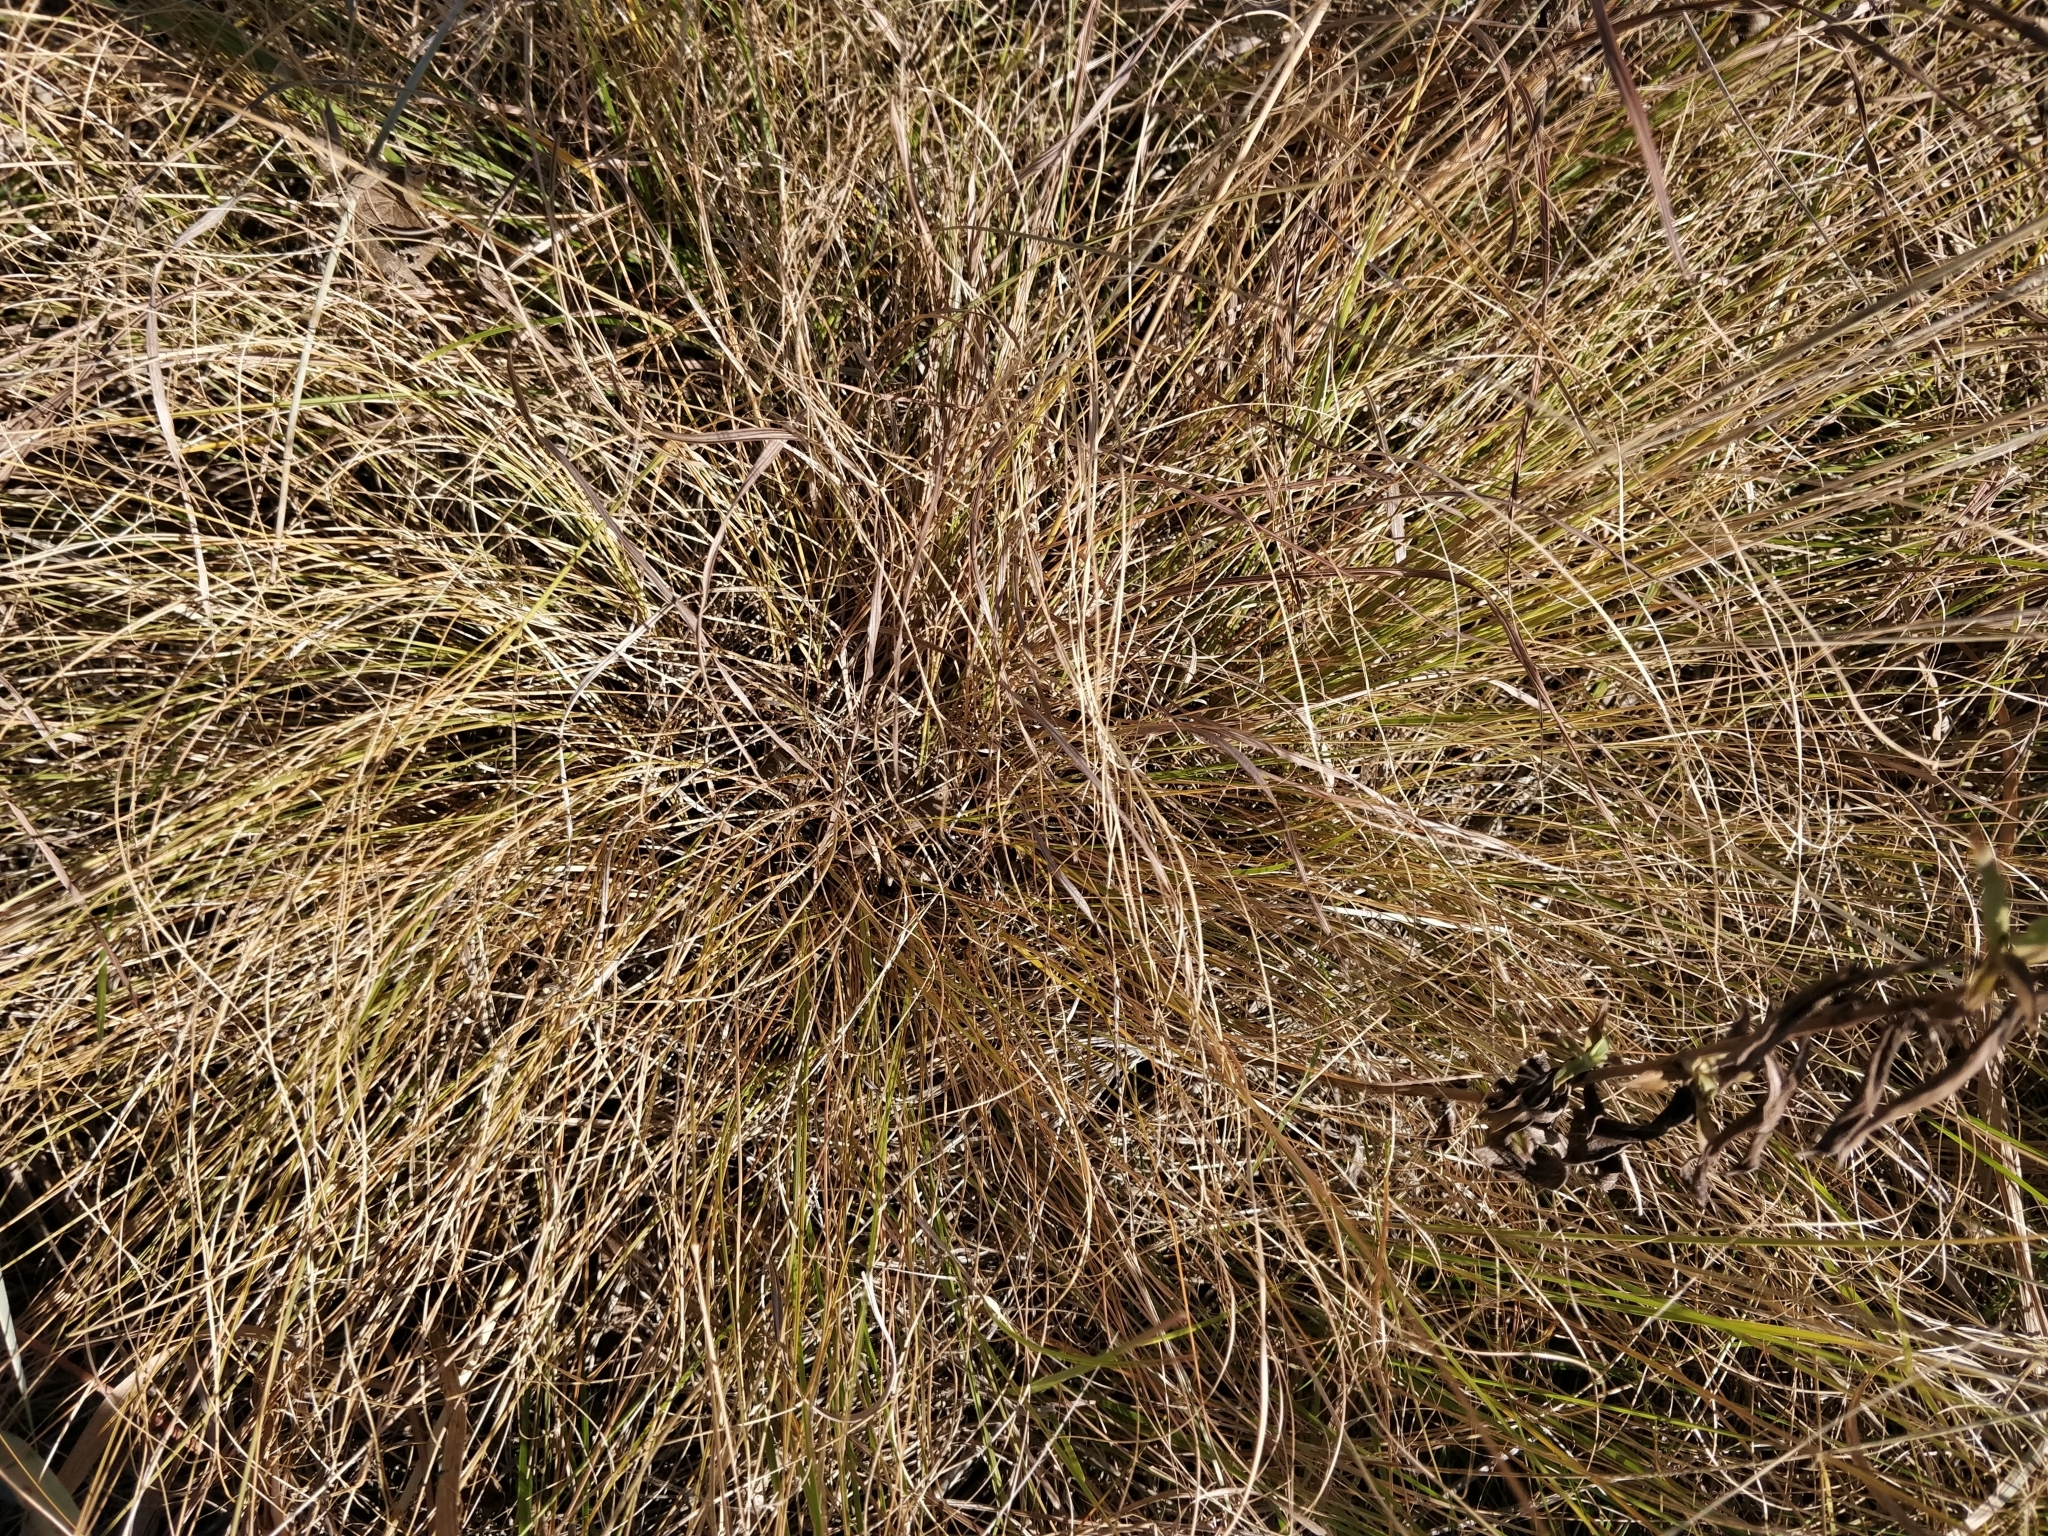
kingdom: Plantae
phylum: Tracheophyta
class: Liliopsida
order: Poales
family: Poaceae
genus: Sporobolus
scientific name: Sporobolus heterolepis
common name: Prairie dropseed
